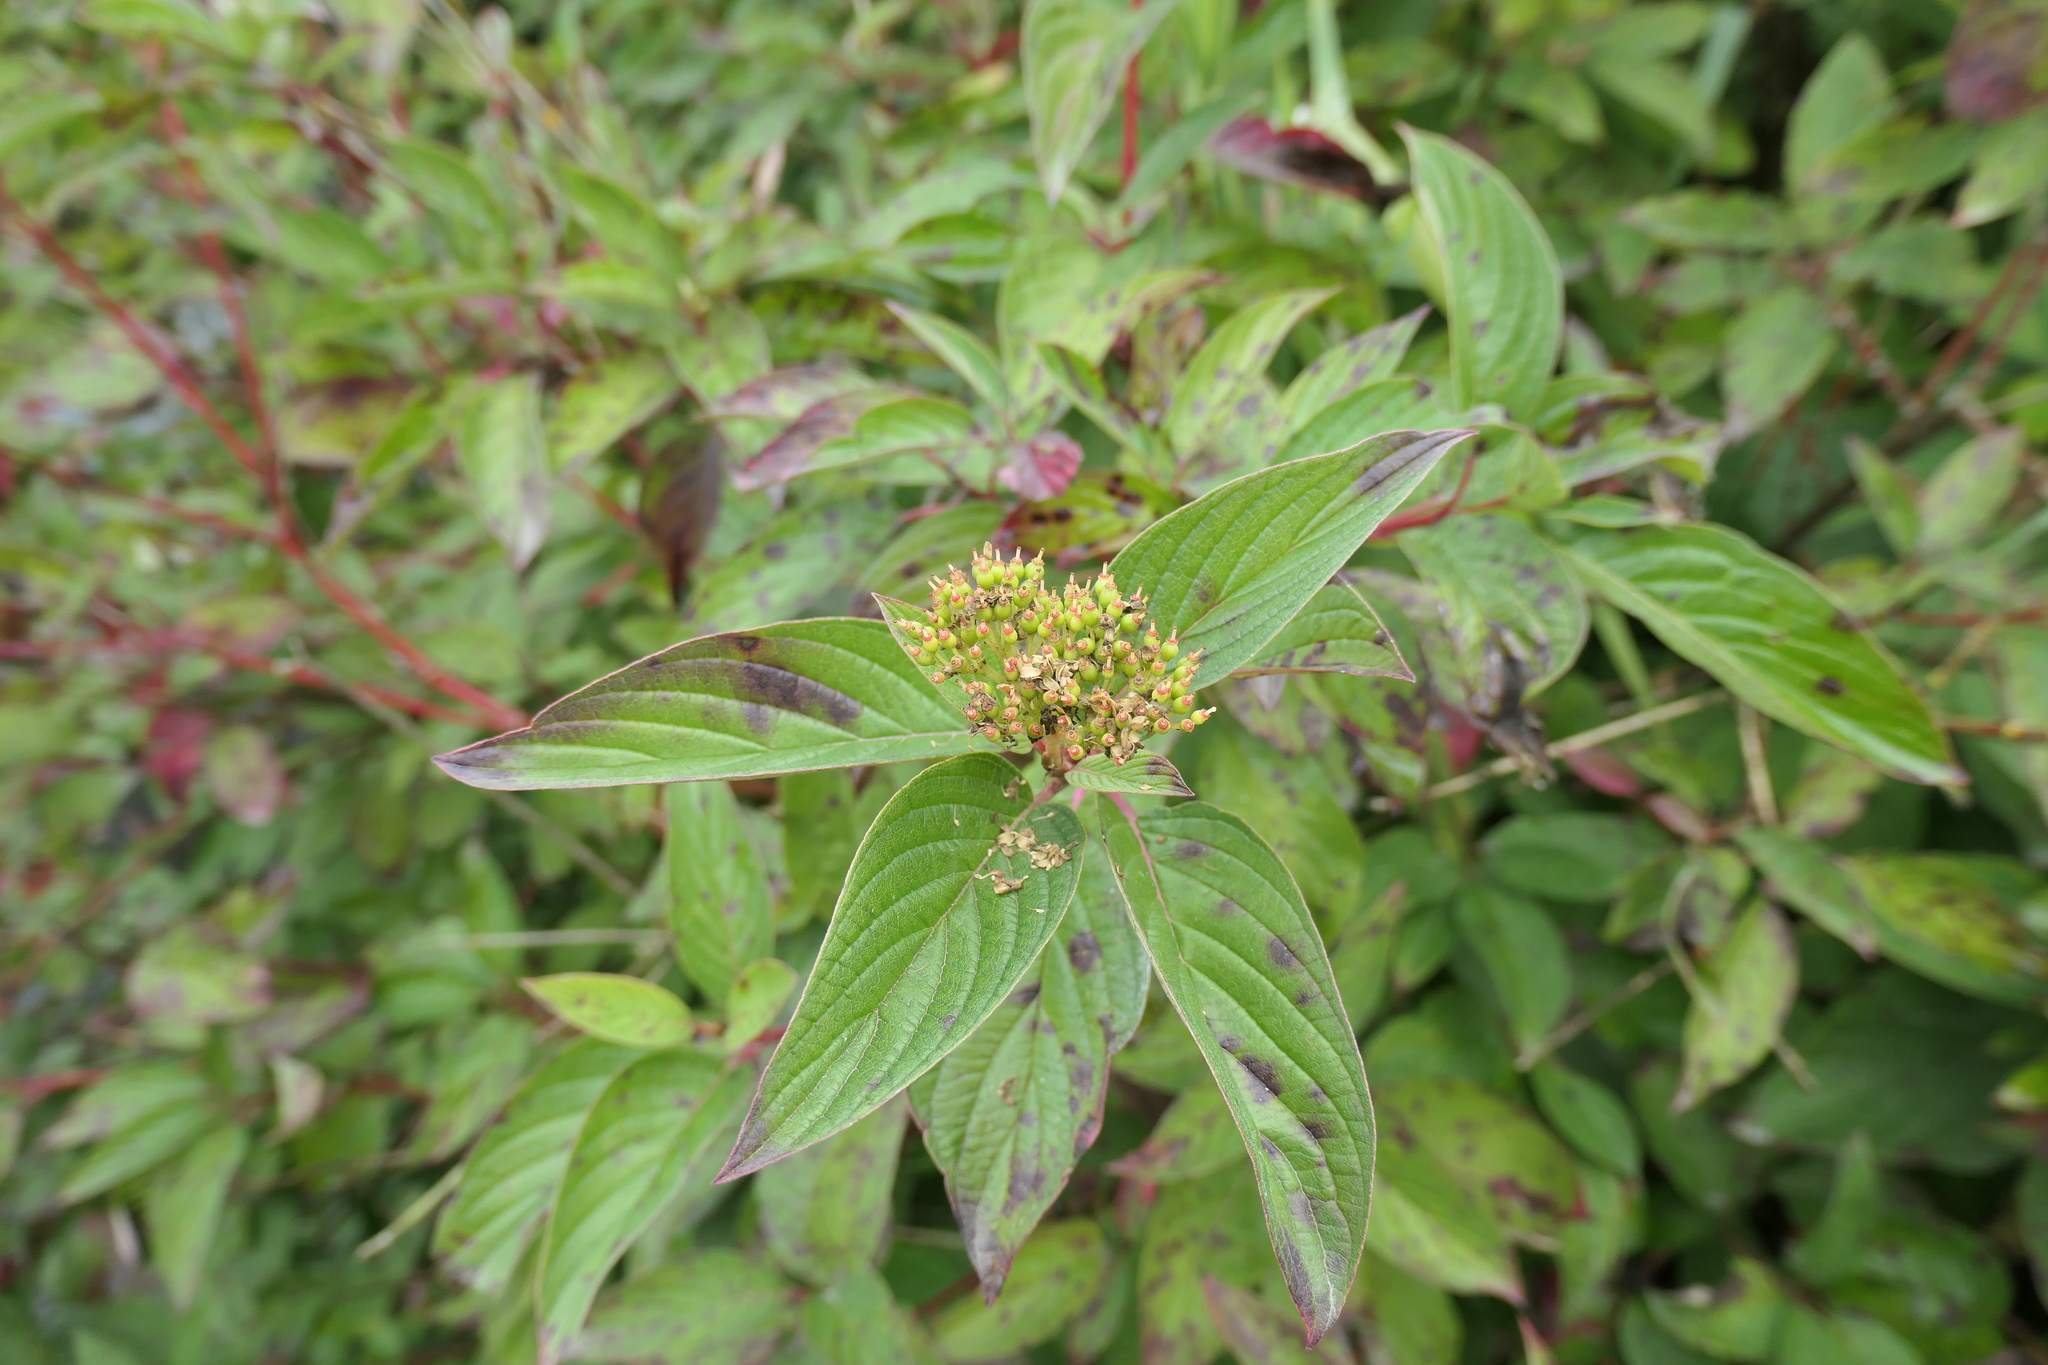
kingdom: Plantae
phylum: Tracheophyta
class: Magnoliopsida
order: Cornales
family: Cornaceae
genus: Cornus
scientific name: Cornus sericea
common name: Red-osier dogwood
